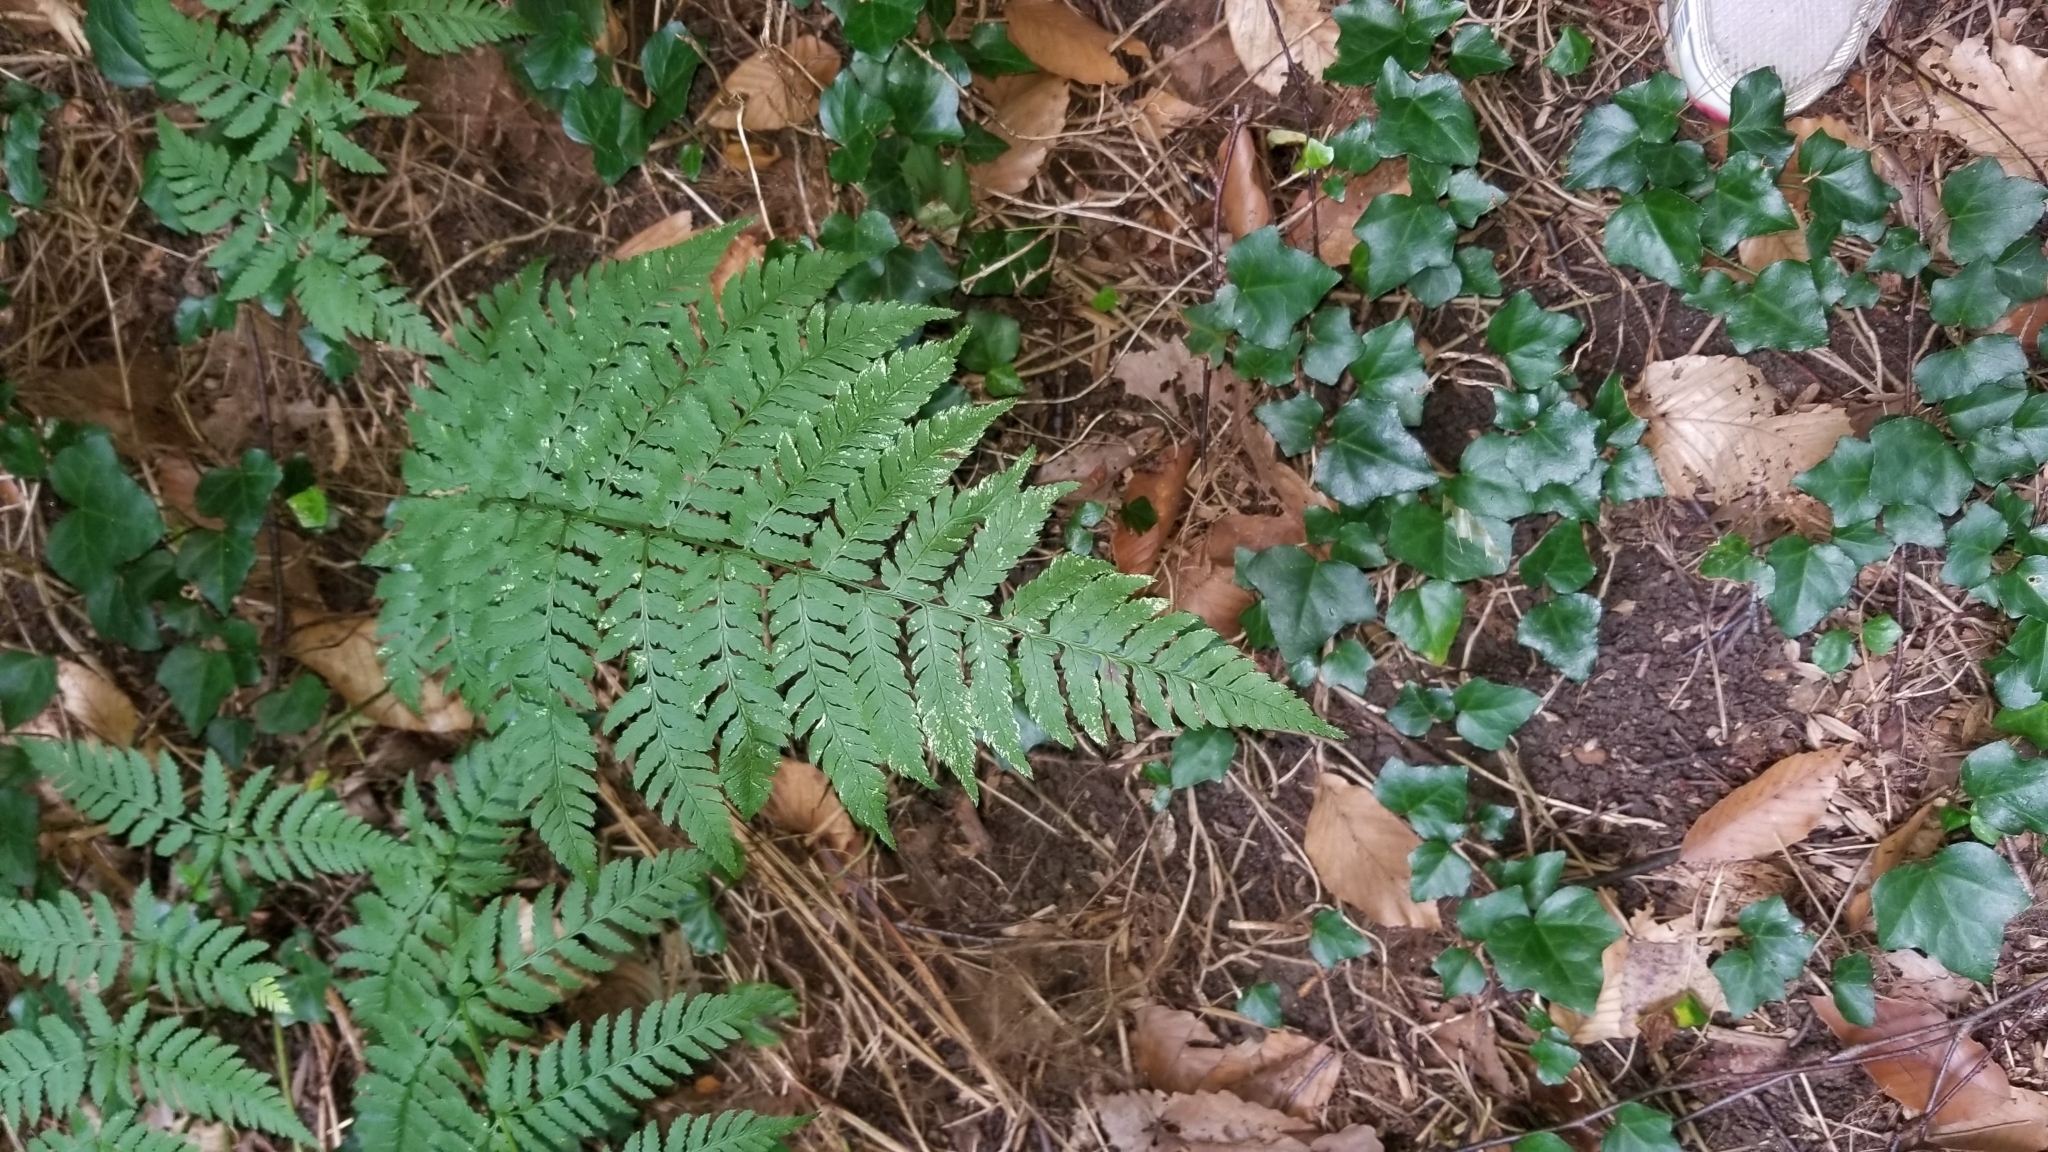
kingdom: Plantae
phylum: Tracheophyta
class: Polypodiopsida
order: Polypodiales
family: Dryopteridaceae
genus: Dryopteris
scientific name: Dryopteris carthusiana
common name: Narrow buckler-fern
